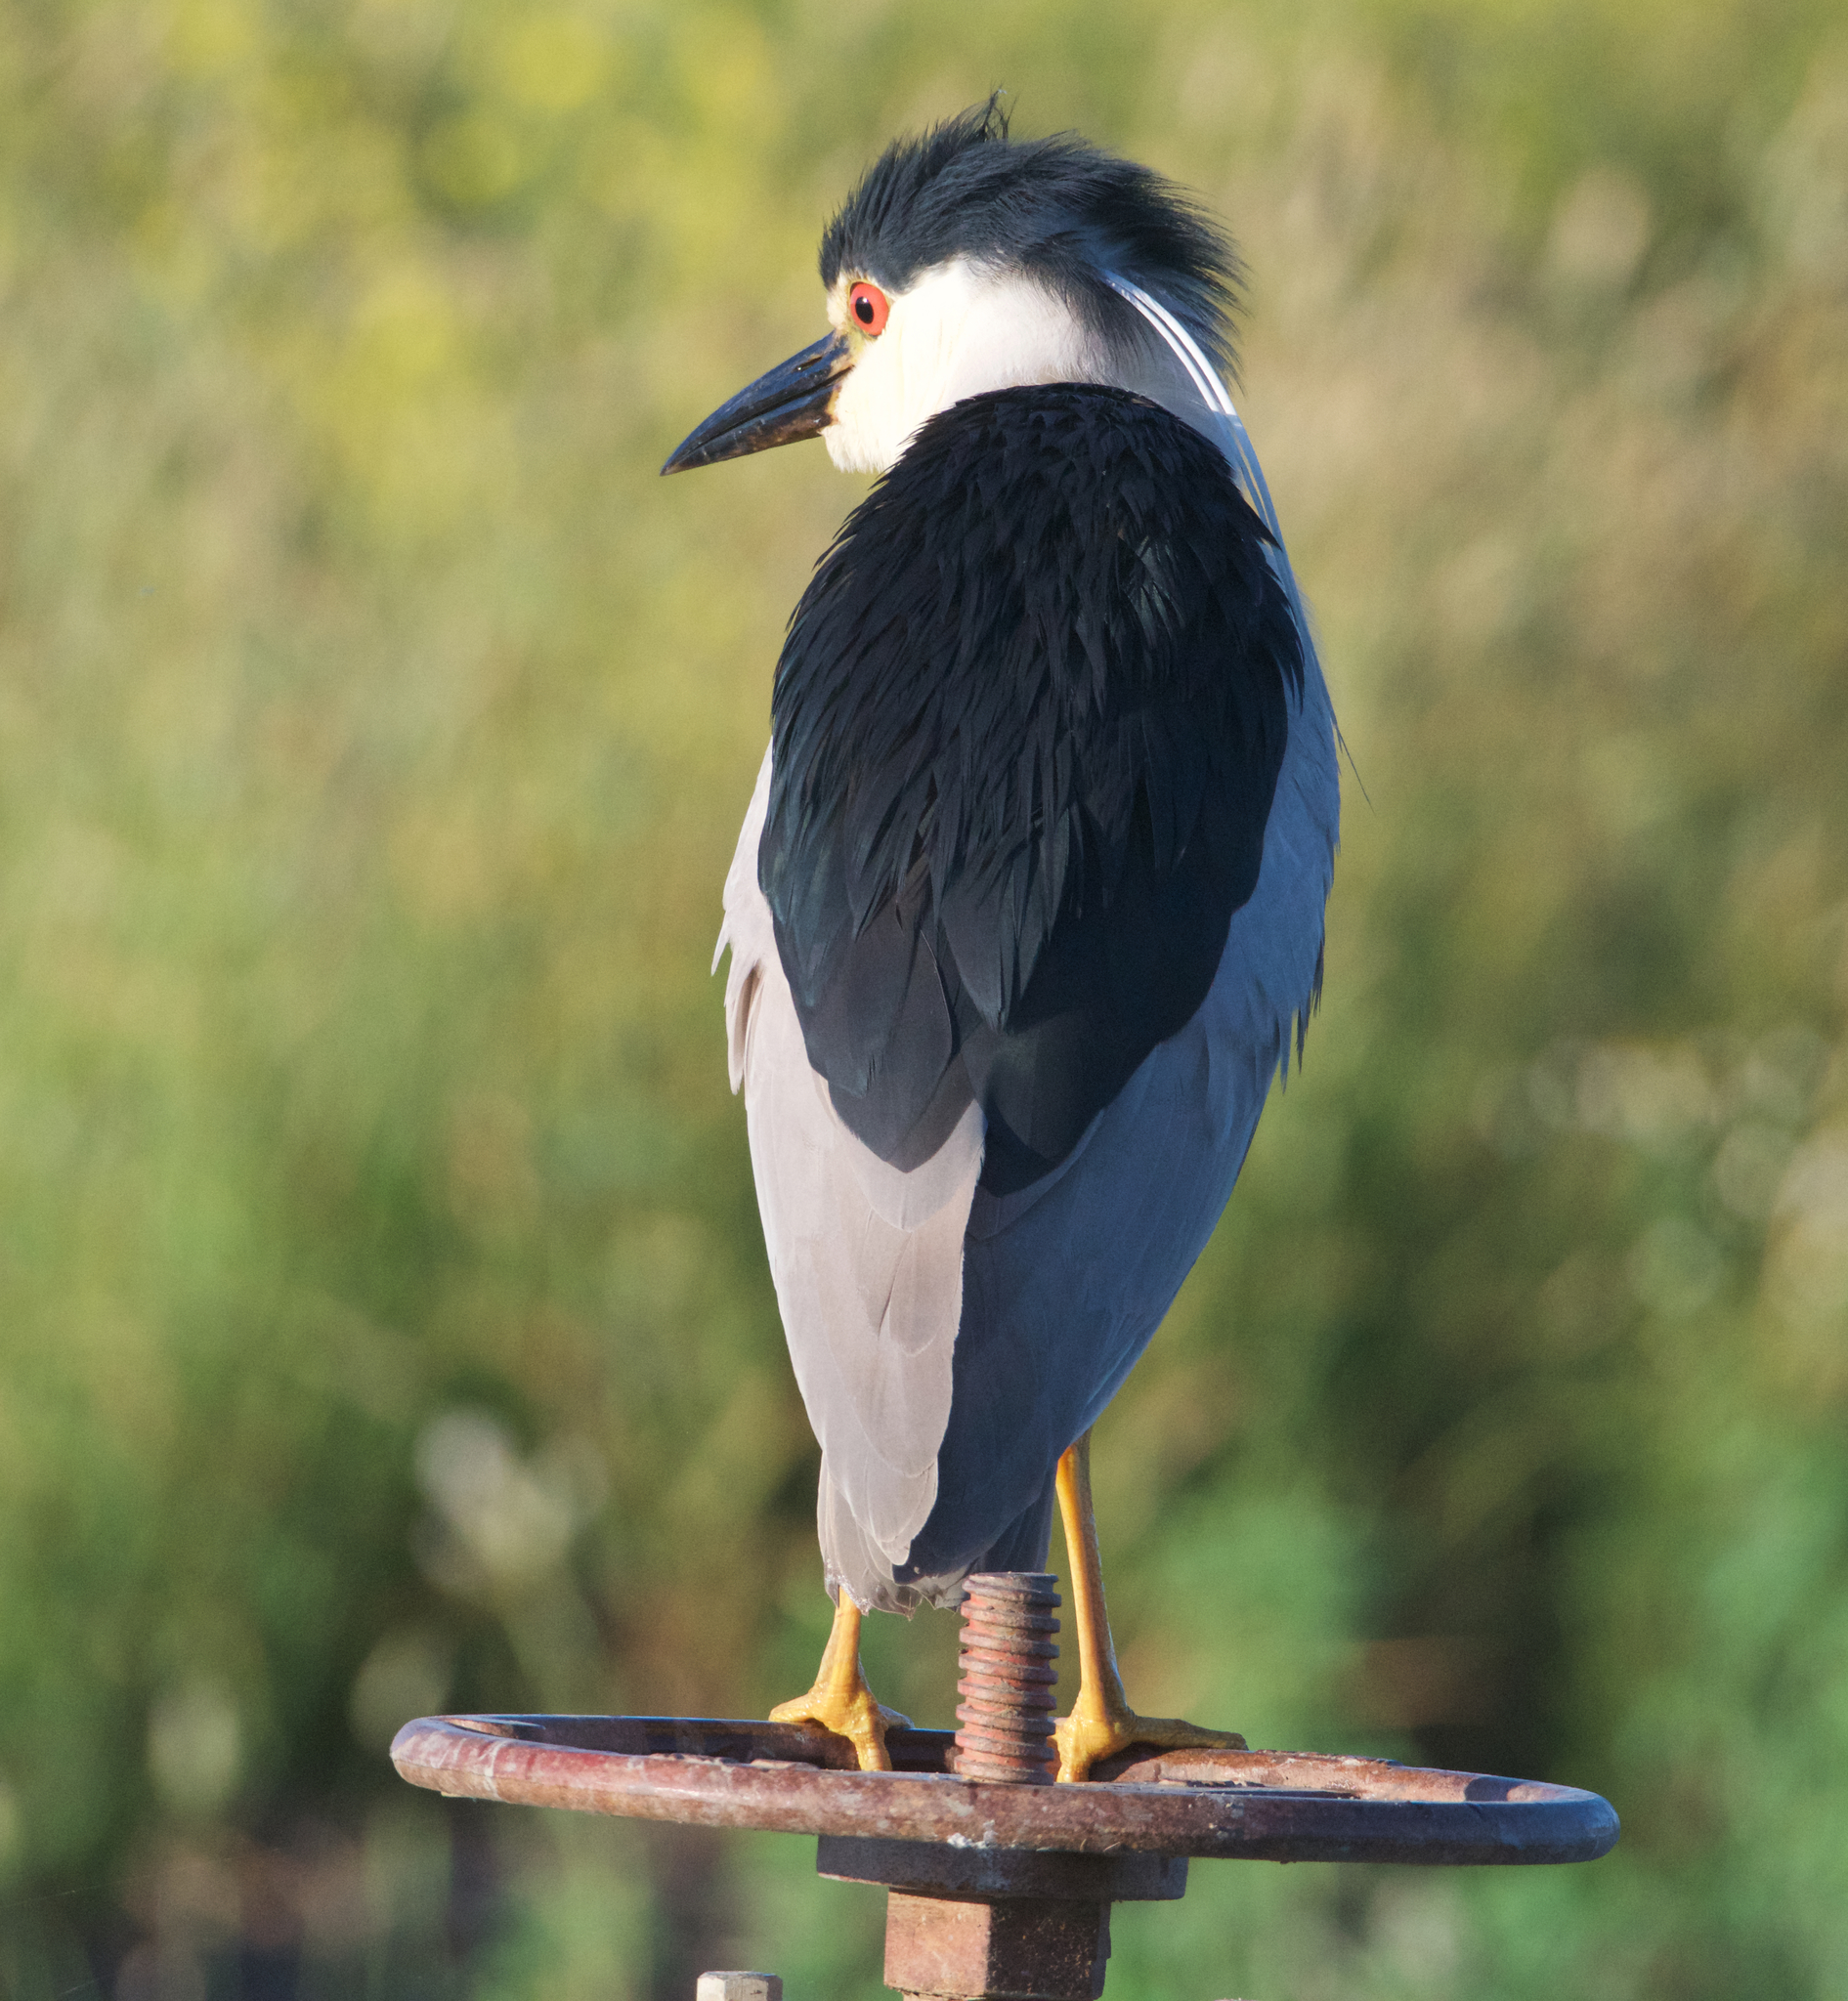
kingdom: Animalia
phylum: Chordata
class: Aves
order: Pelecaniformes
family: Ardeidae
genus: Nycticorax
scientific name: Nycticorax nycticorax
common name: Black-crowned night heron
